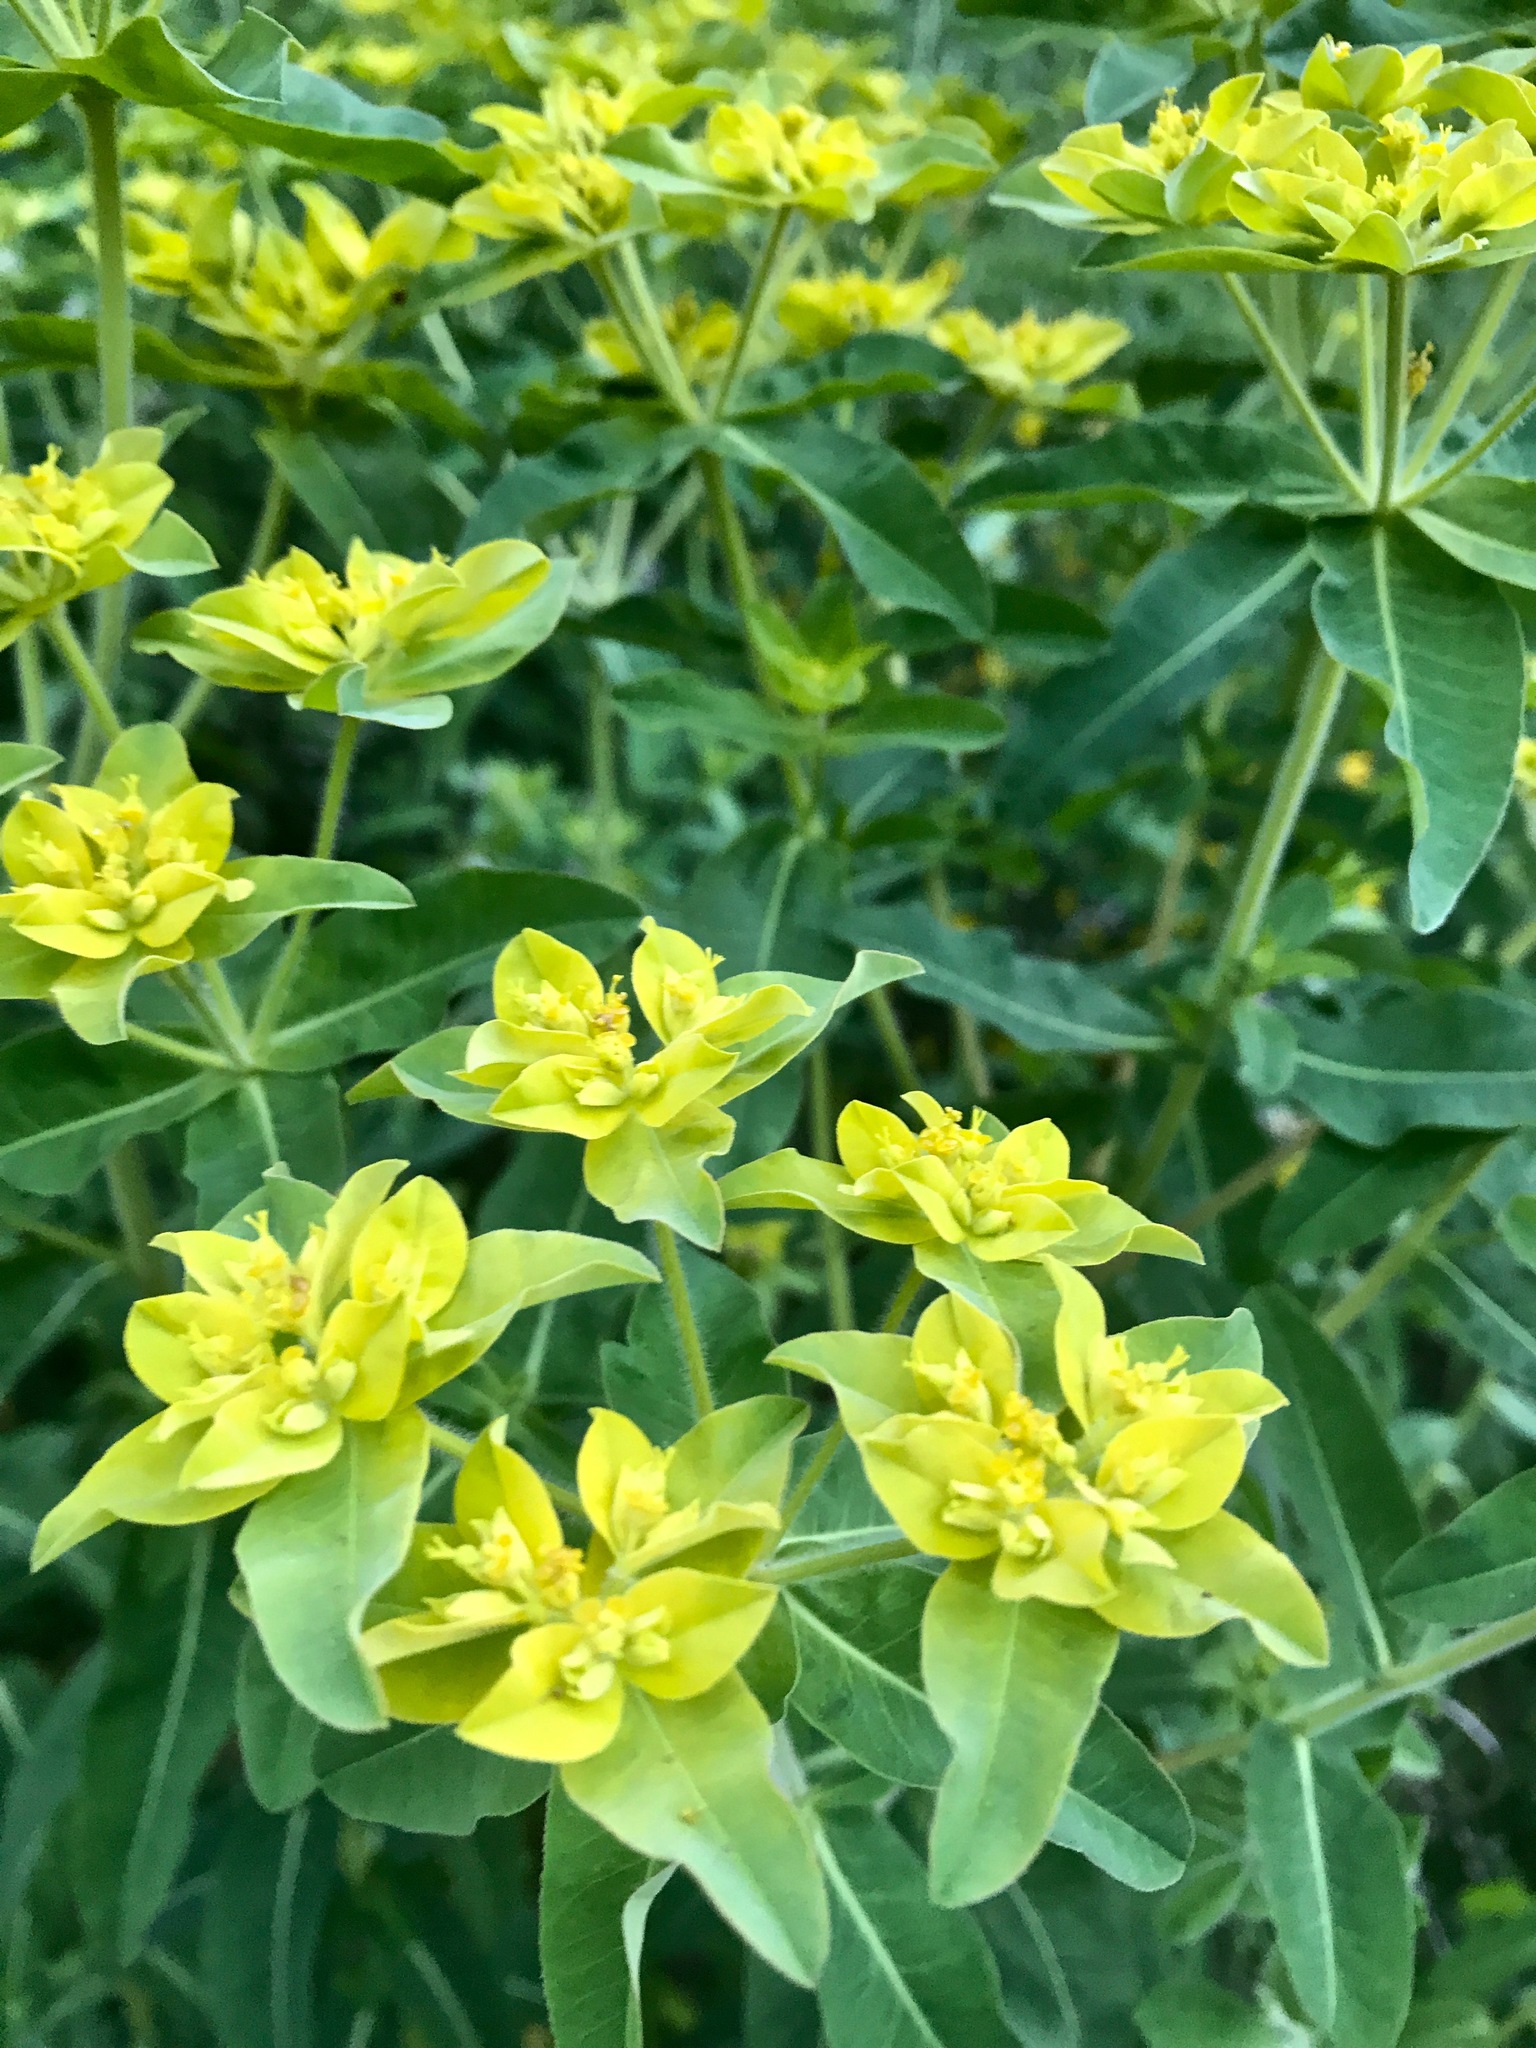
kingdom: Plantae
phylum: Tracheophyta
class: Magnoliopsida
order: Malpighiales
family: Euphorbiaceae
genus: Euphorbia
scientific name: Euphorbia oblongata
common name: Balkan spurge
